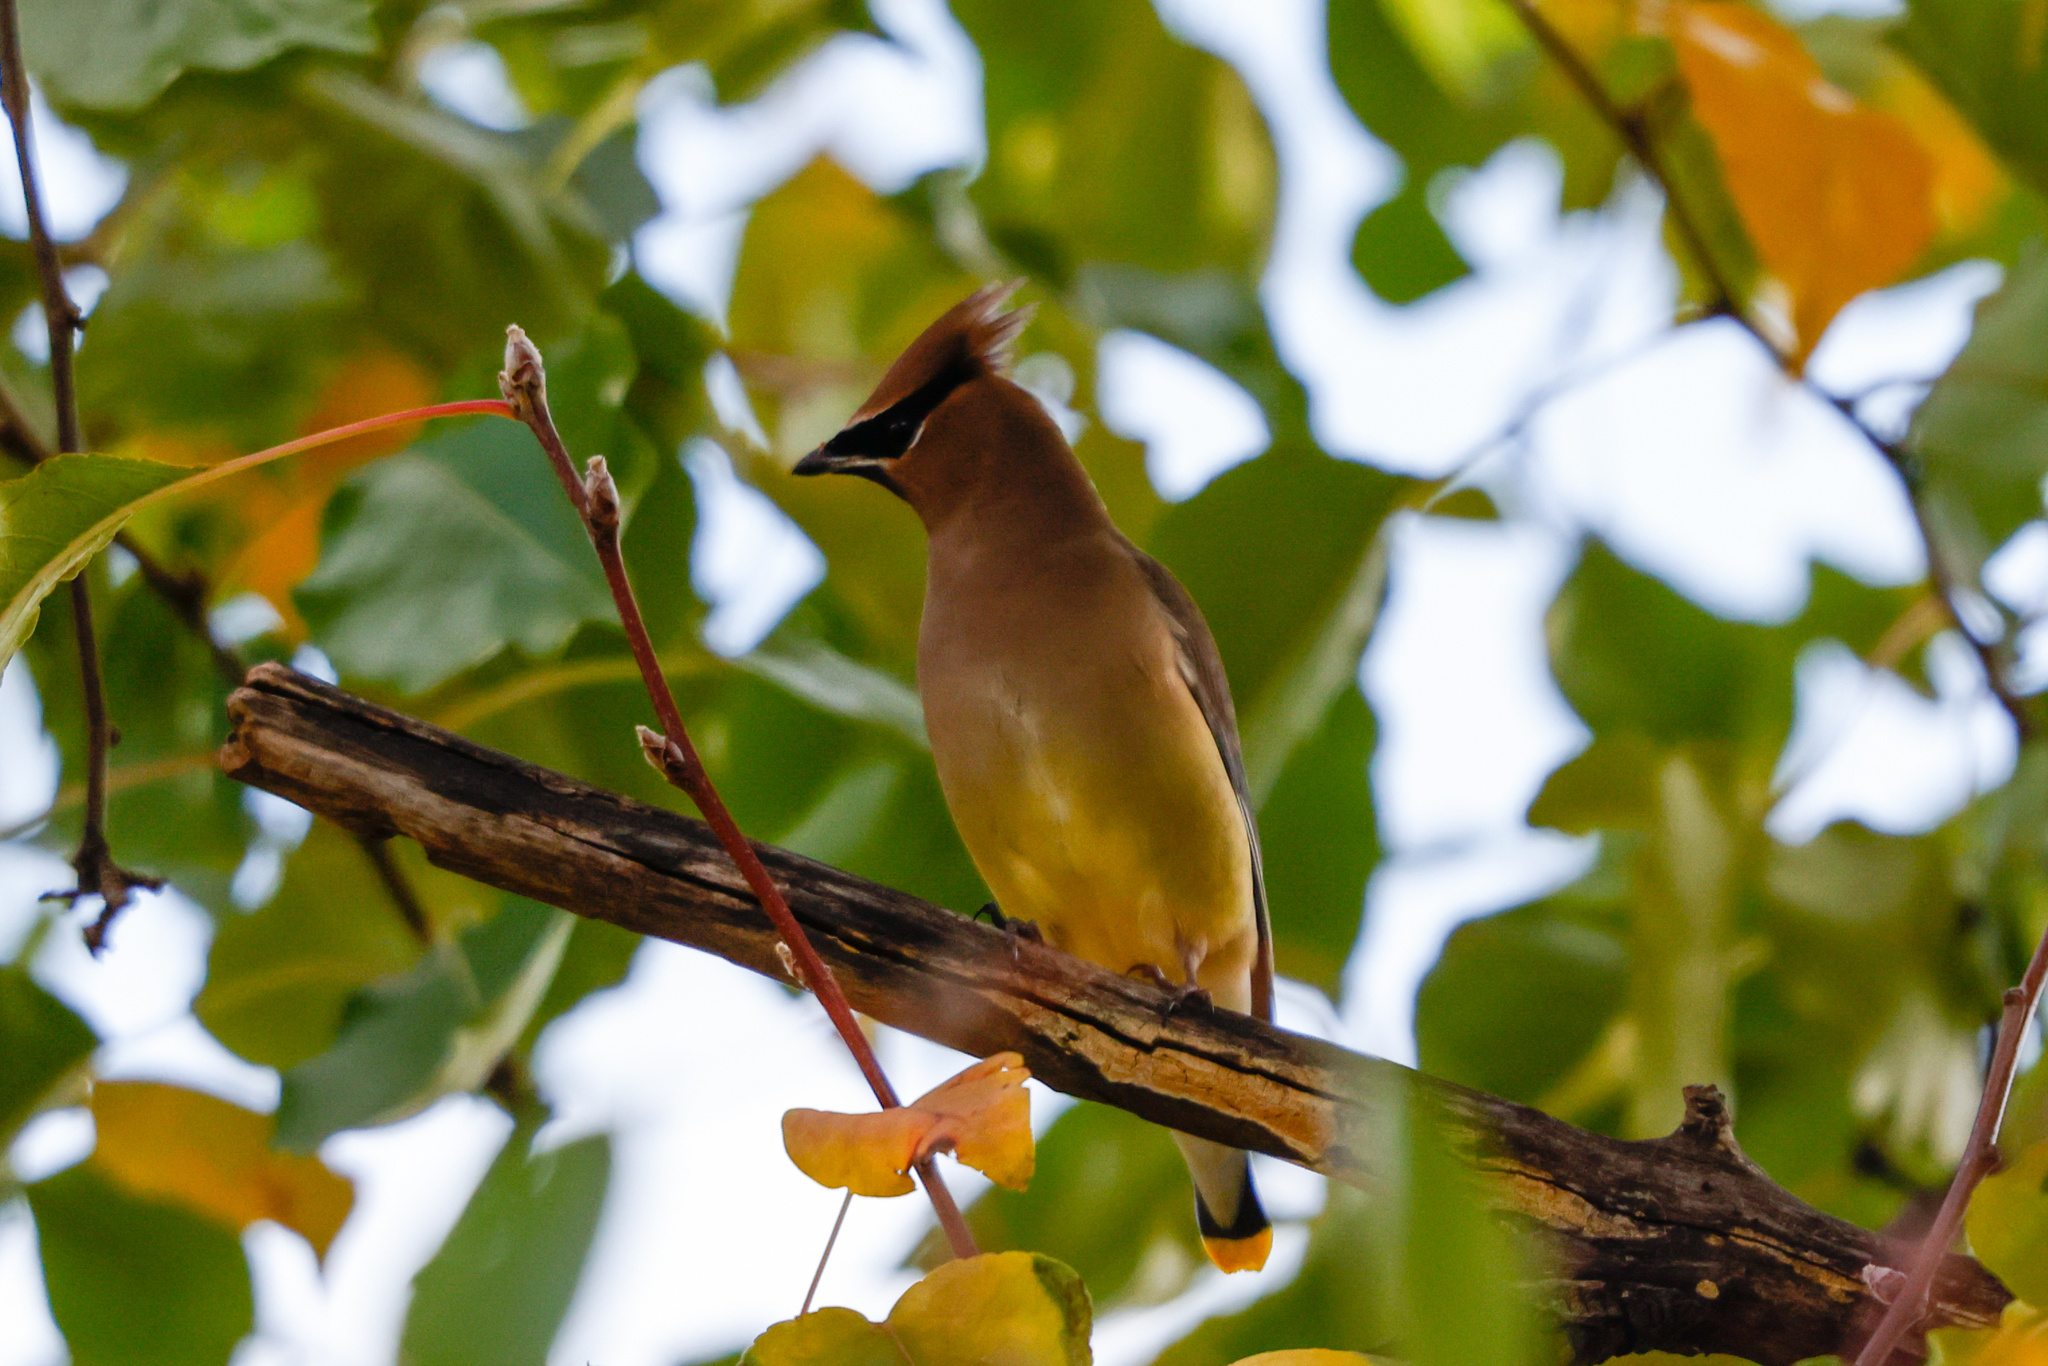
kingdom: Animalia
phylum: Chordata
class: Aves
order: Passeriformes
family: Bombycillidae
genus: Bombycilla
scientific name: Bombycilla cedrorum
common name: Cedar waxwing
